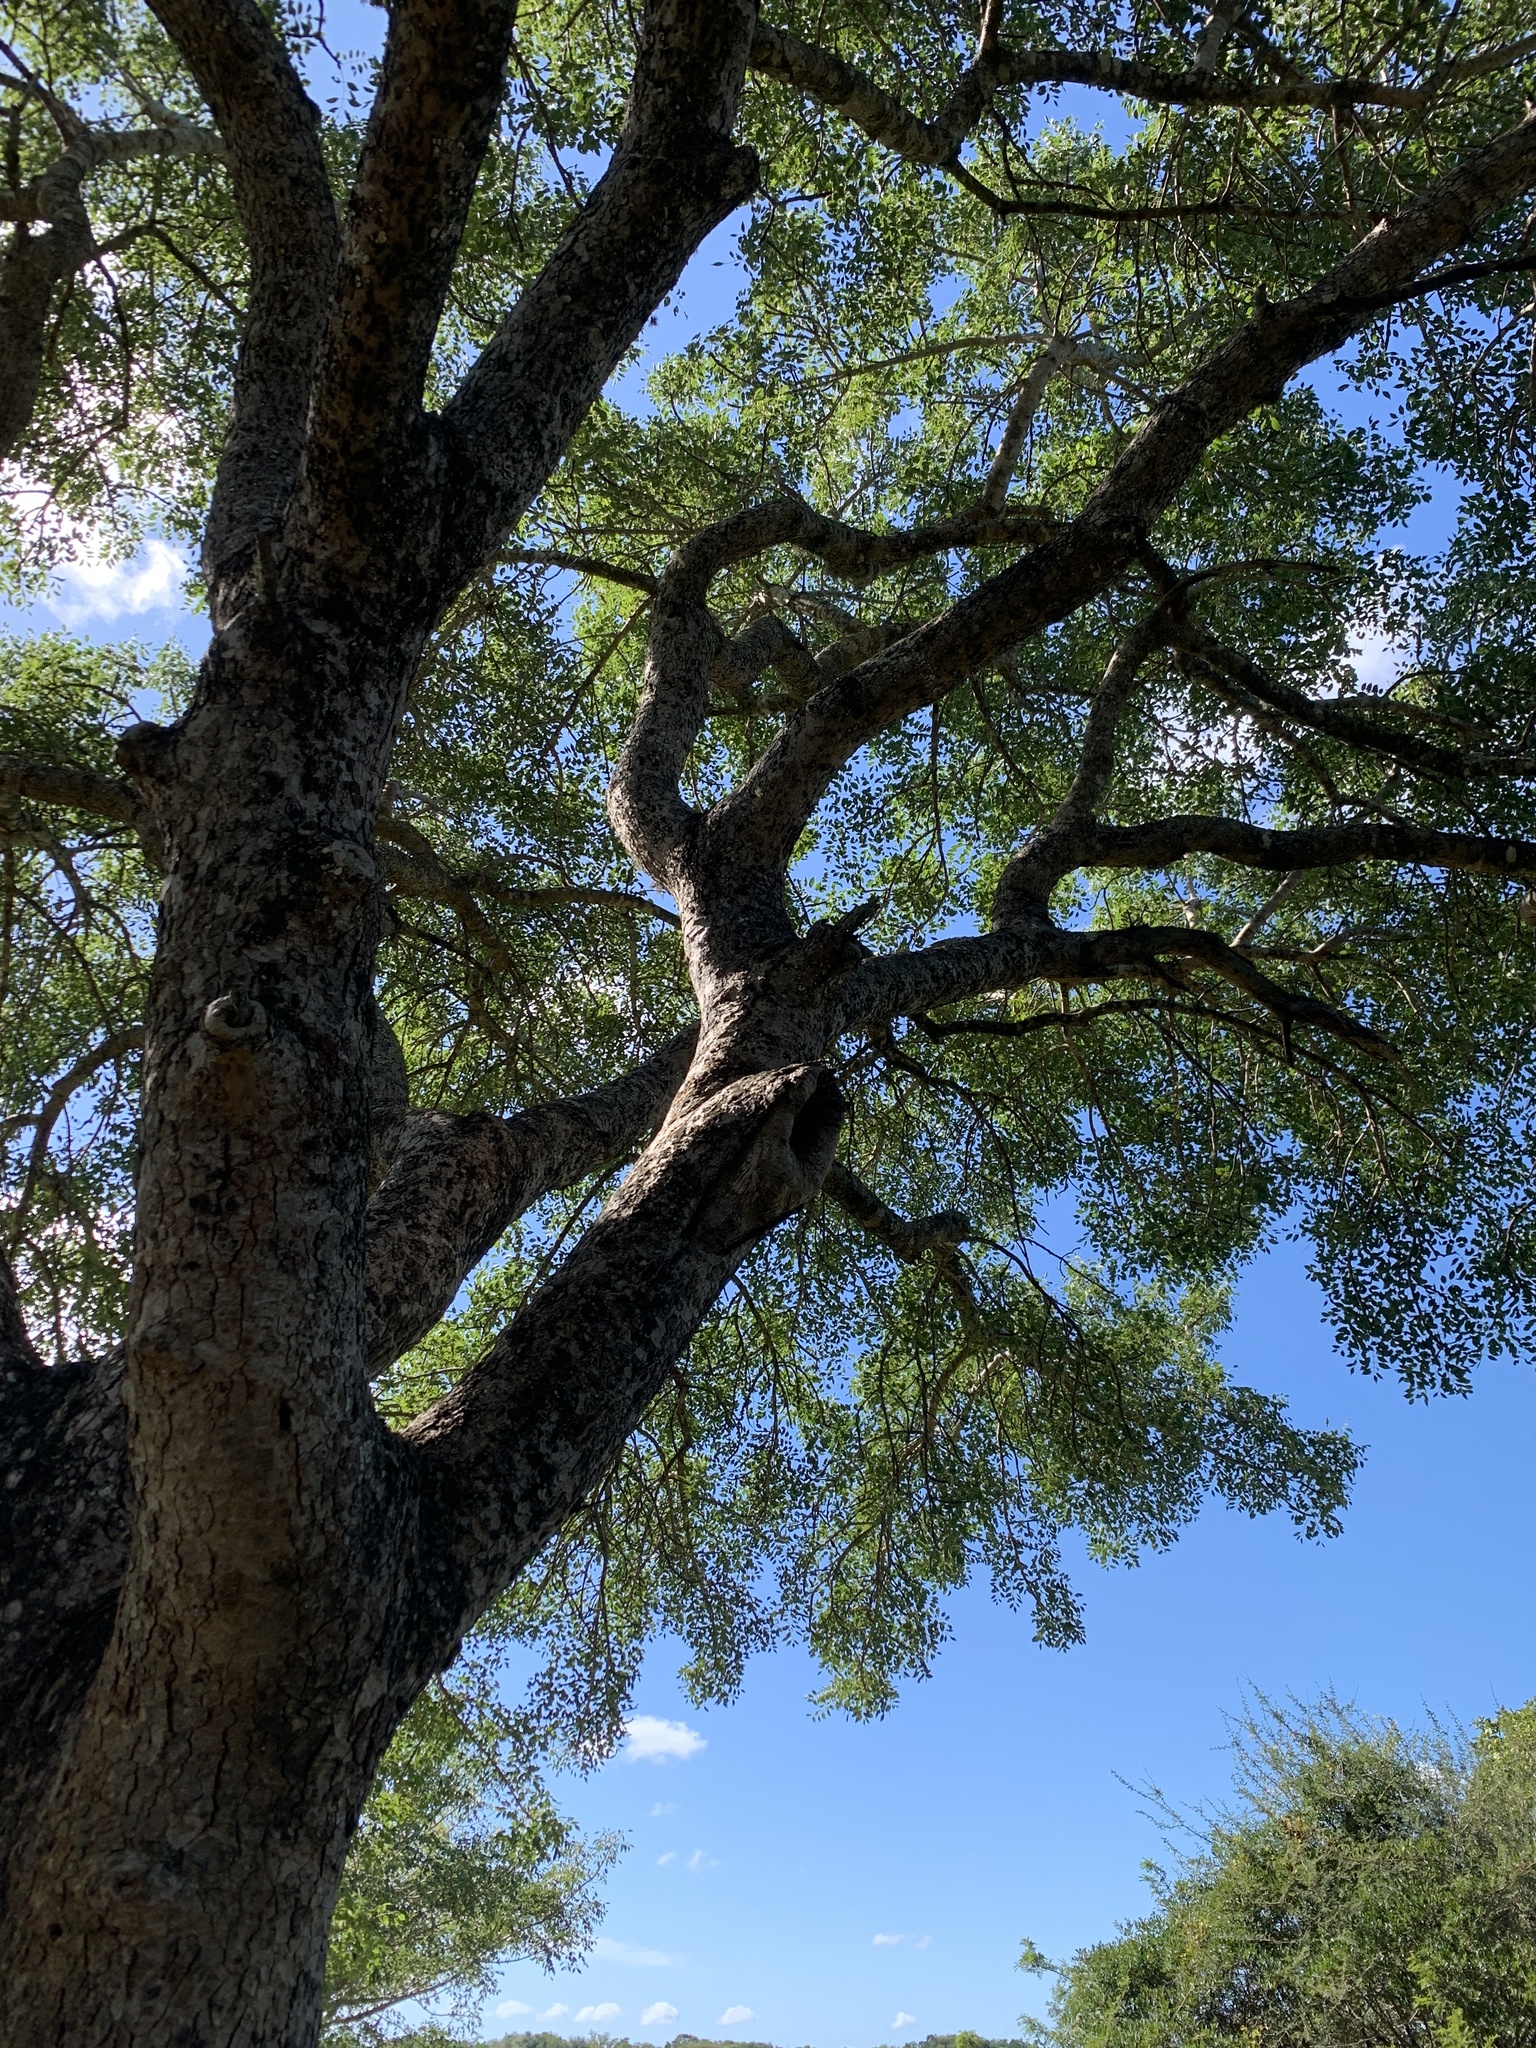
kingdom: Plantae
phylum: Tracheophyta
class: Magnoliopsida
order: Sapindales
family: Anacardiaceae
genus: Sclerocarya
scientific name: Sclerocarya birrea
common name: Marula
